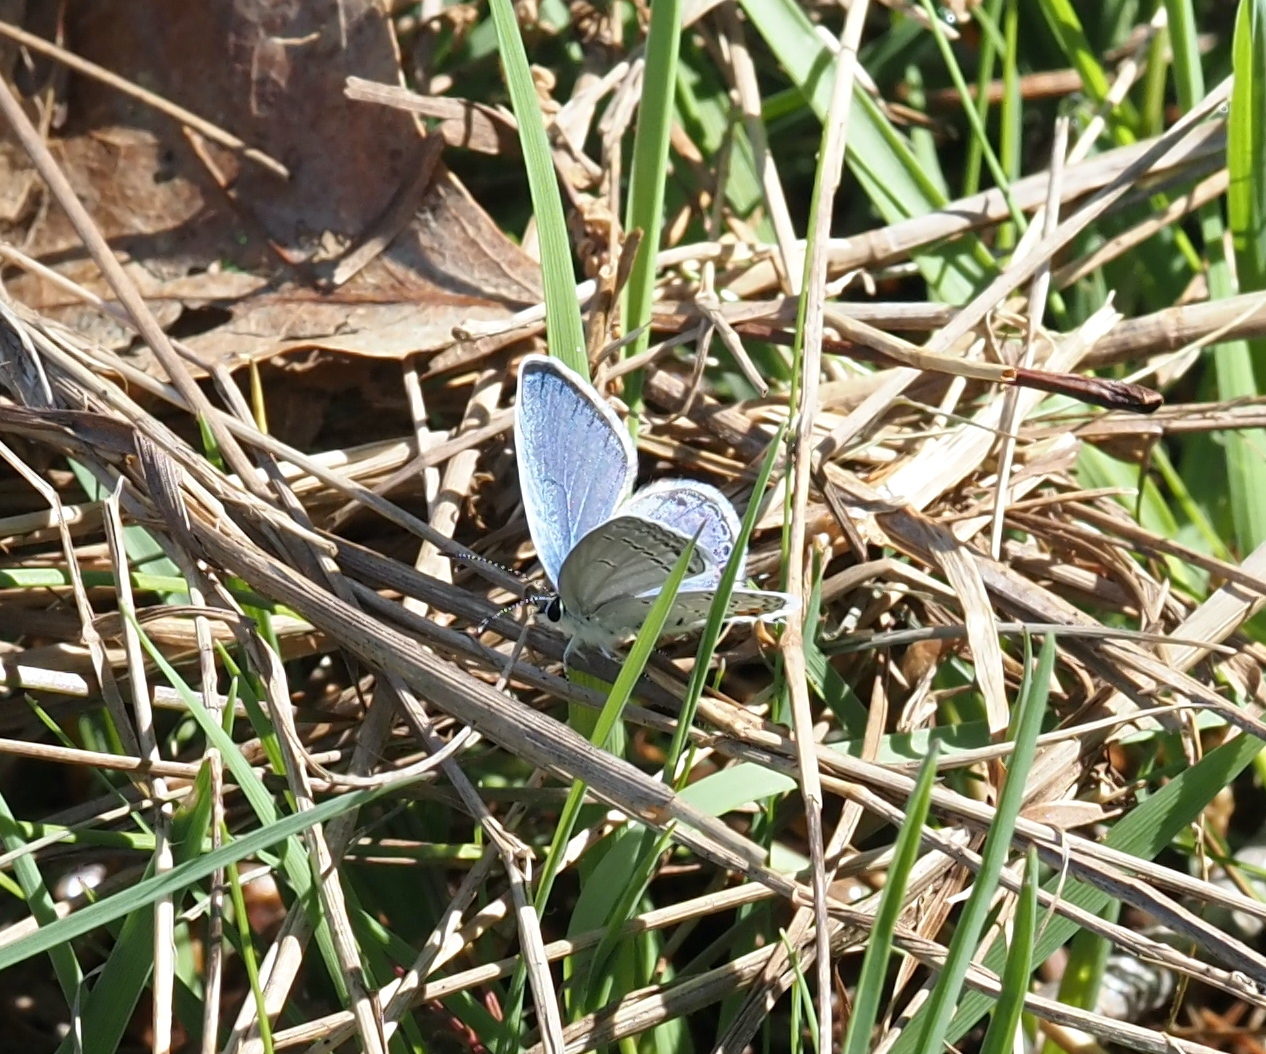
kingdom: Animalia
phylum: Arthropoda
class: Insecta
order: Lepidoptera
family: Lycaenidae
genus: Elkalyce
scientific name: Elkalyce comyntas
